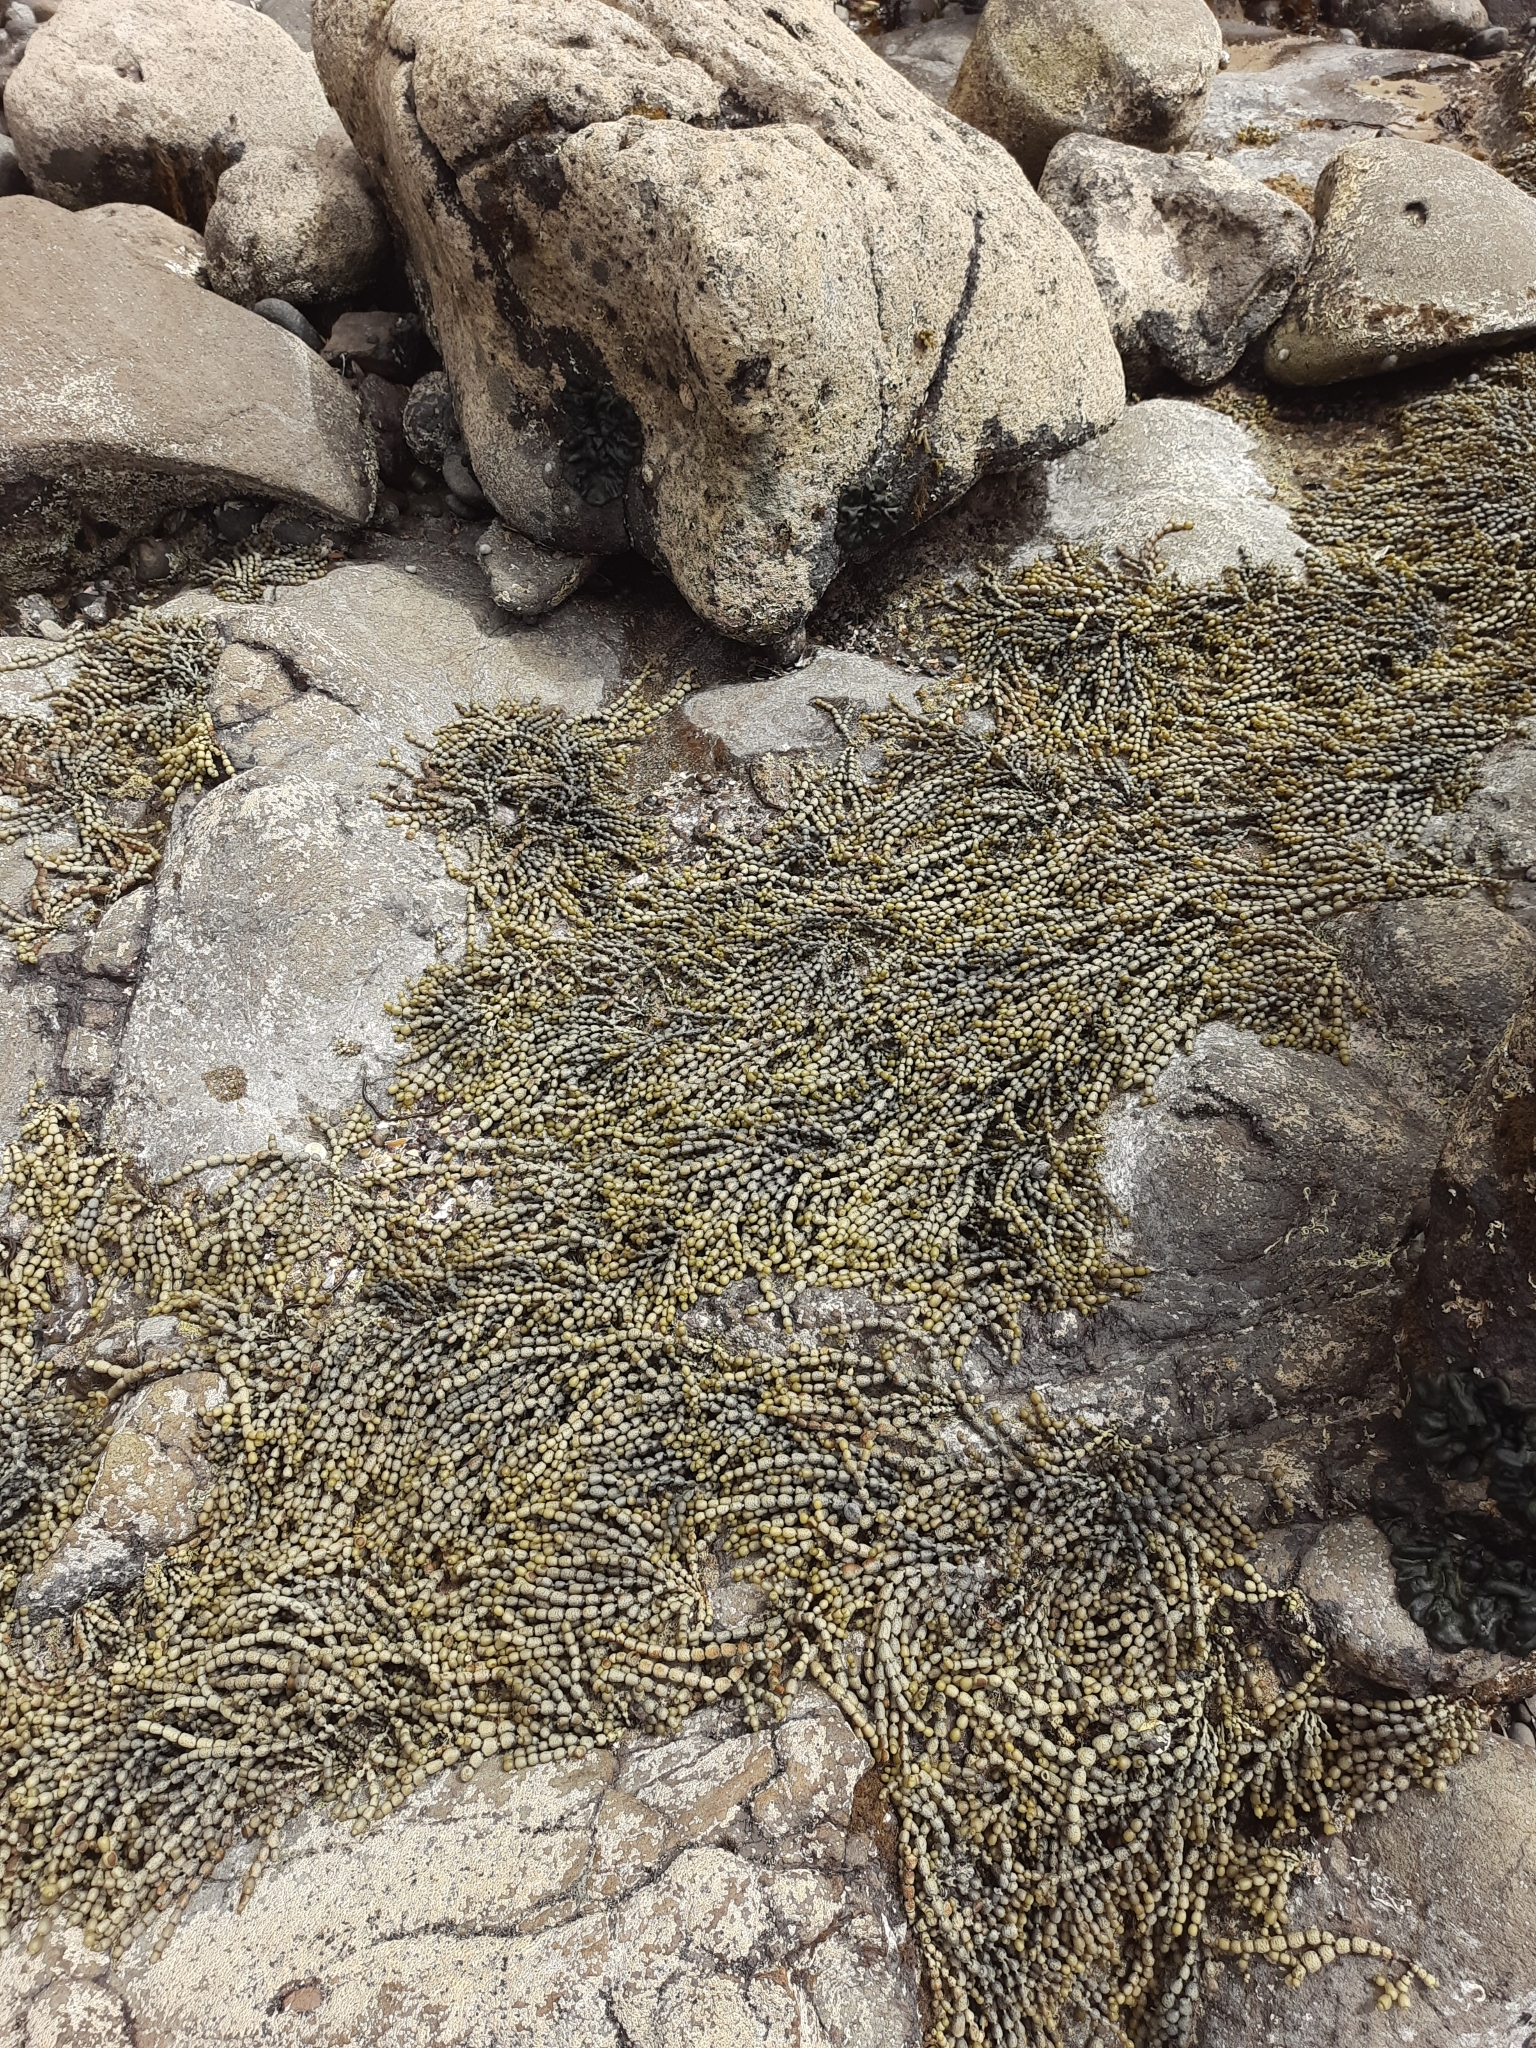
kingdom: Chromista
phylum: Ochrophyta
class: Phaeophyceae
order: Fucales
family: Hormosiraceae
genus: Hormosira
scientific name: Hormosira banksii
